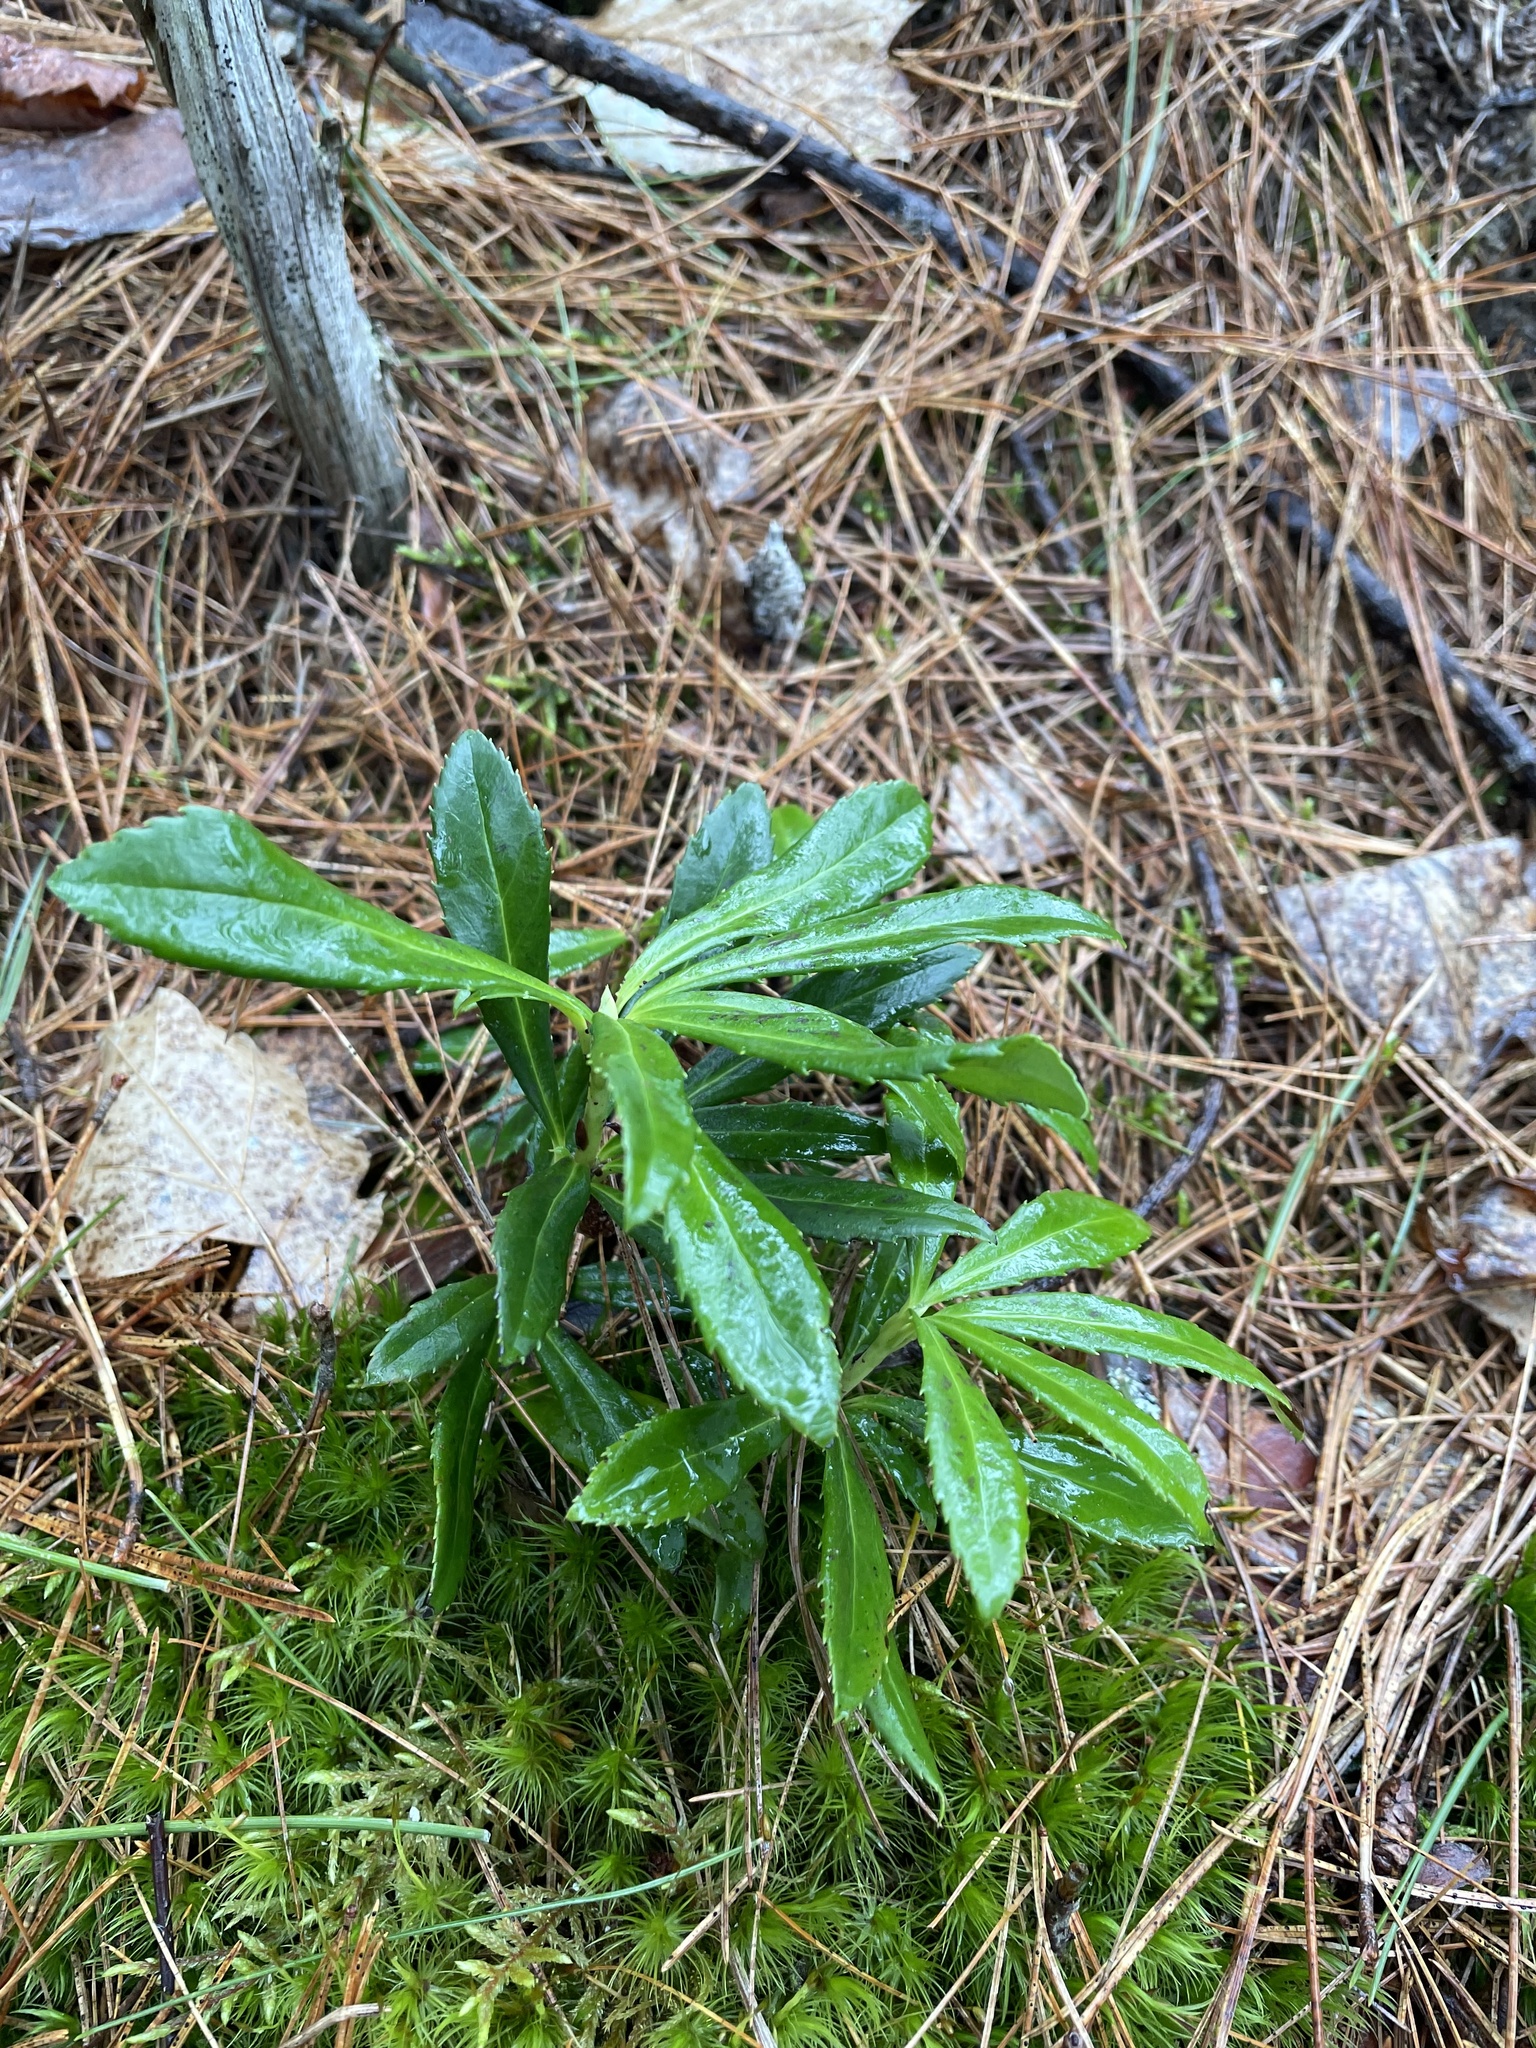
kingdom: Plantae
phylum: Tracheophyta
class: Magnoliopsida
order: Ericales
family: Ericaceae
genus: Chimaphila
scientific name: Chimaphila umbellata
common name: Pipsissewa
